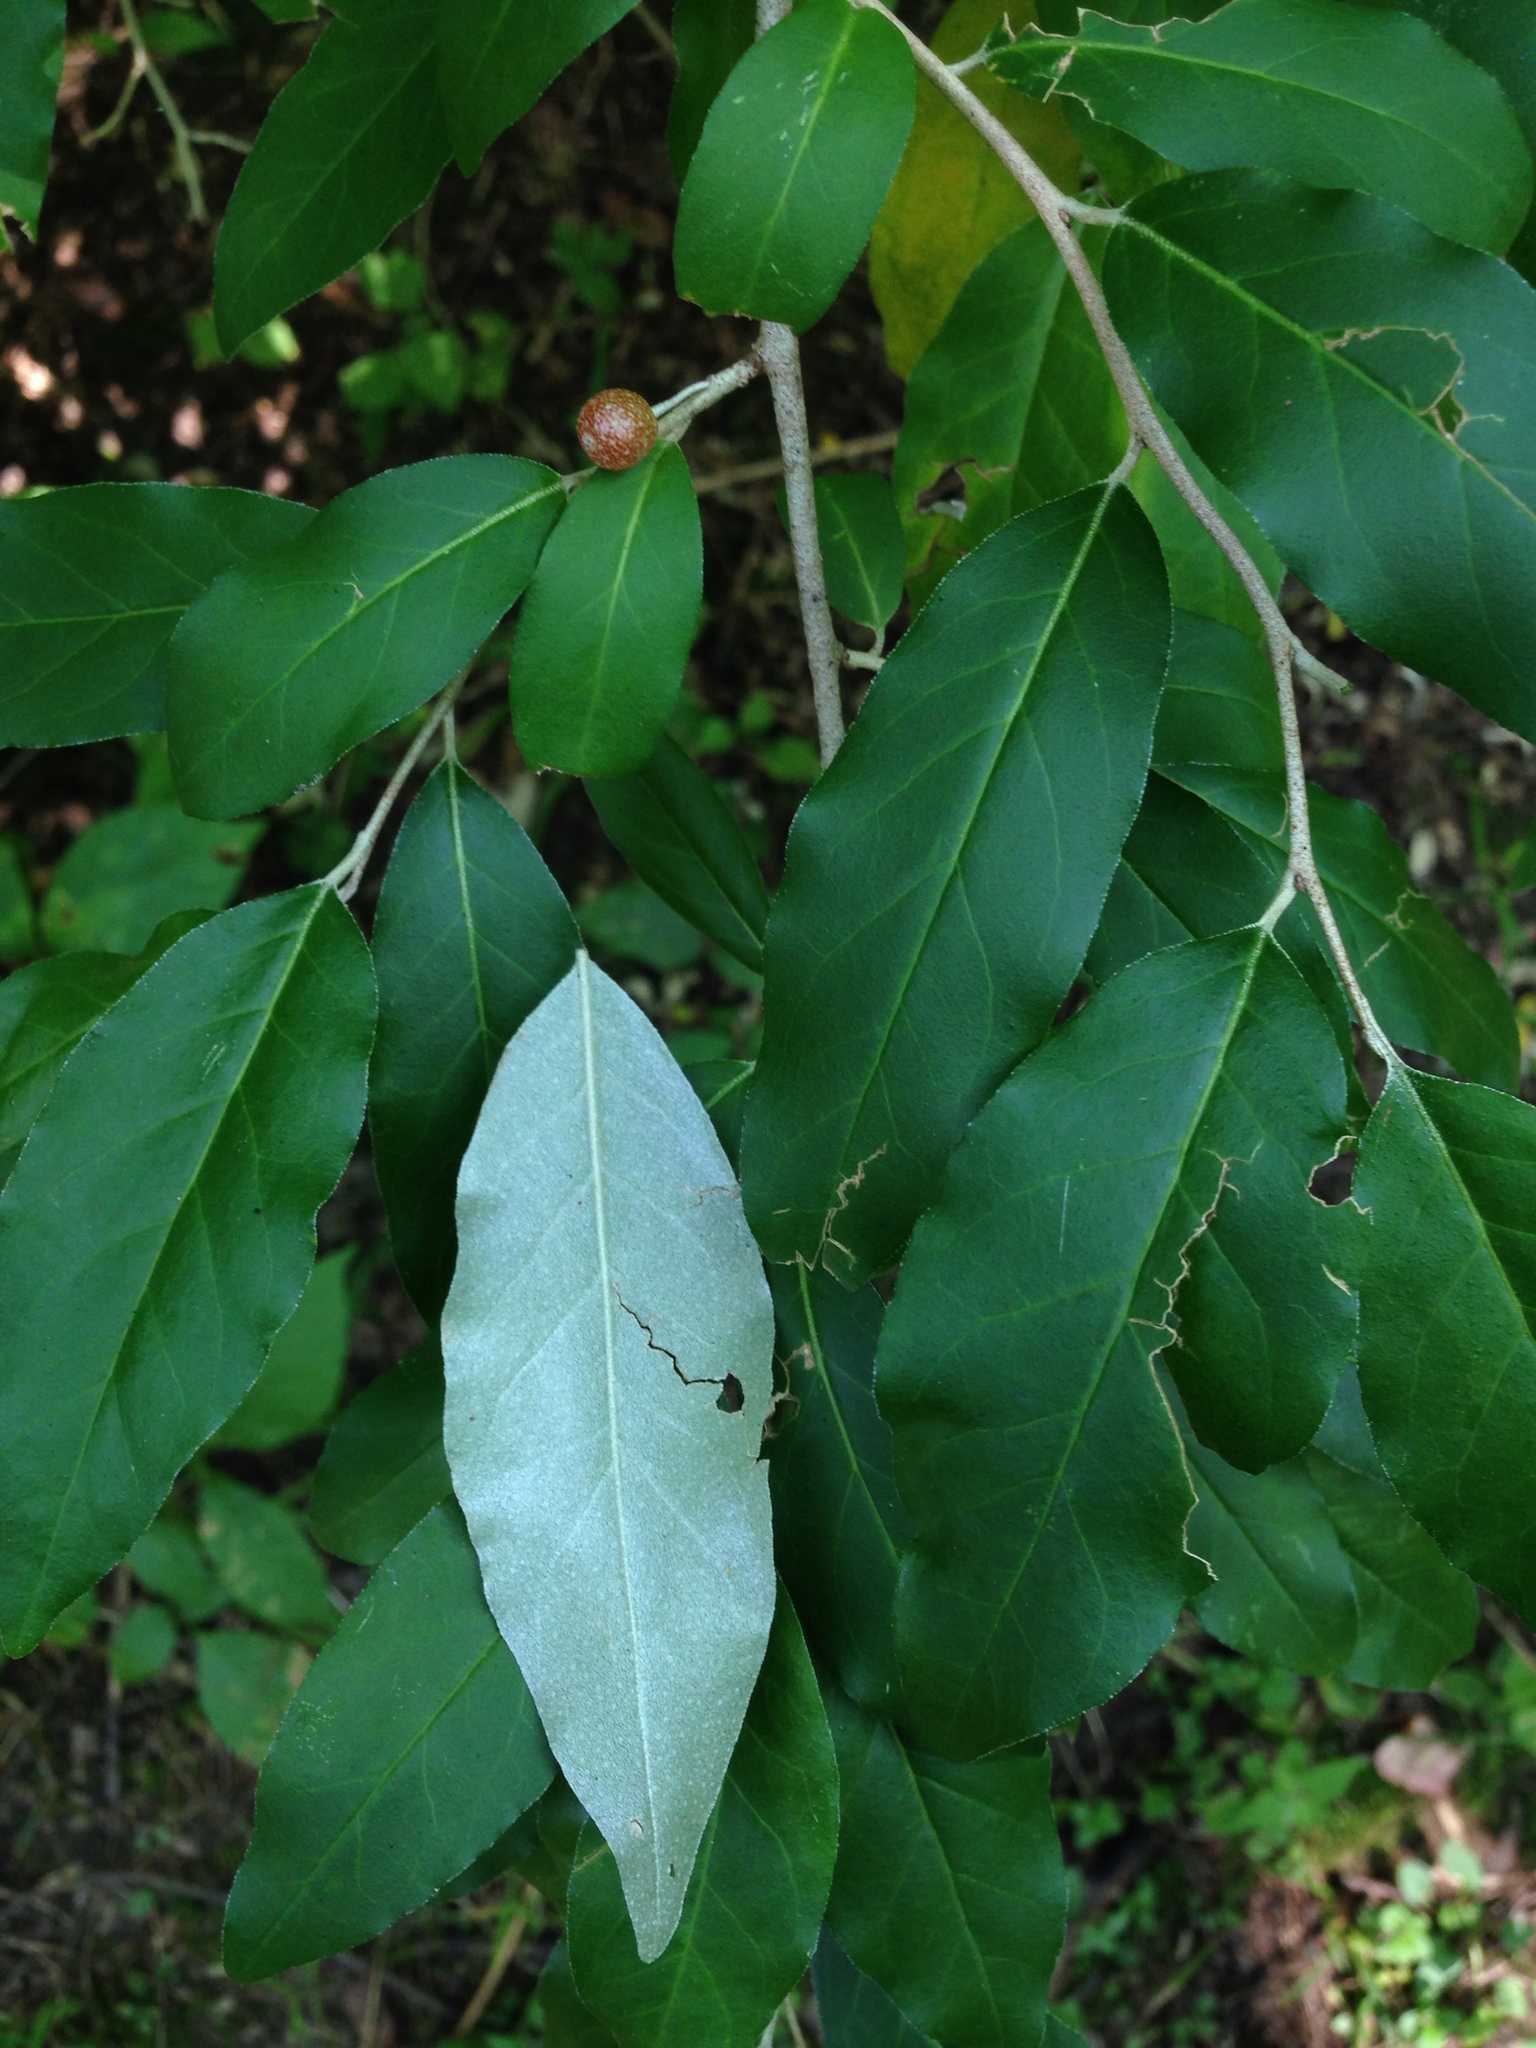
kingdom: Plantae
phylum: Tracheophyta
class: Magnoliopsida
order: Rosales
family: Elaeagnaceae
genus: Elaeagnus
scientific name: Elaeagnus umbellata
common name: Autumn olive
